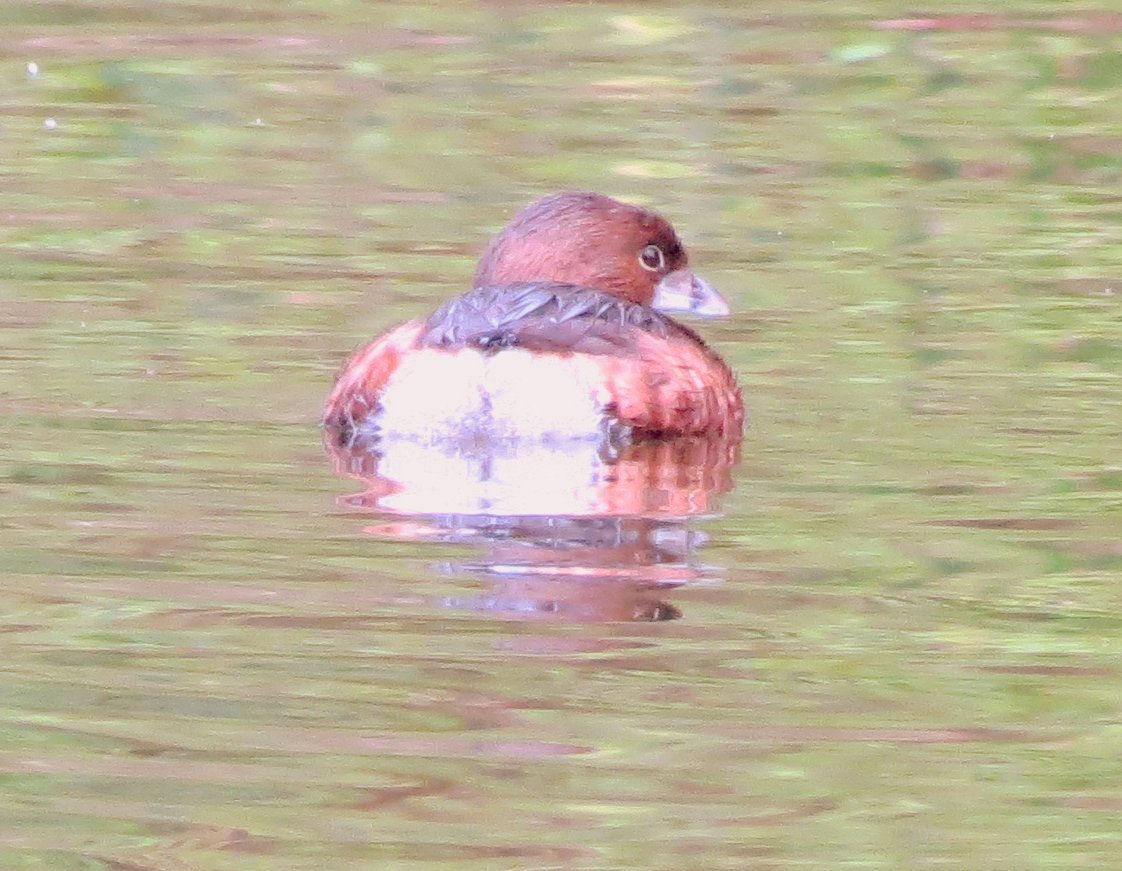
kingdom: Animalia
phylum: Chordata
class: Aves
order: Podicipediformes
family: Podicipedidae
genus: Podilymbus
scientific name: Podilymbus podiceps
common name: Pied-billed grebe
